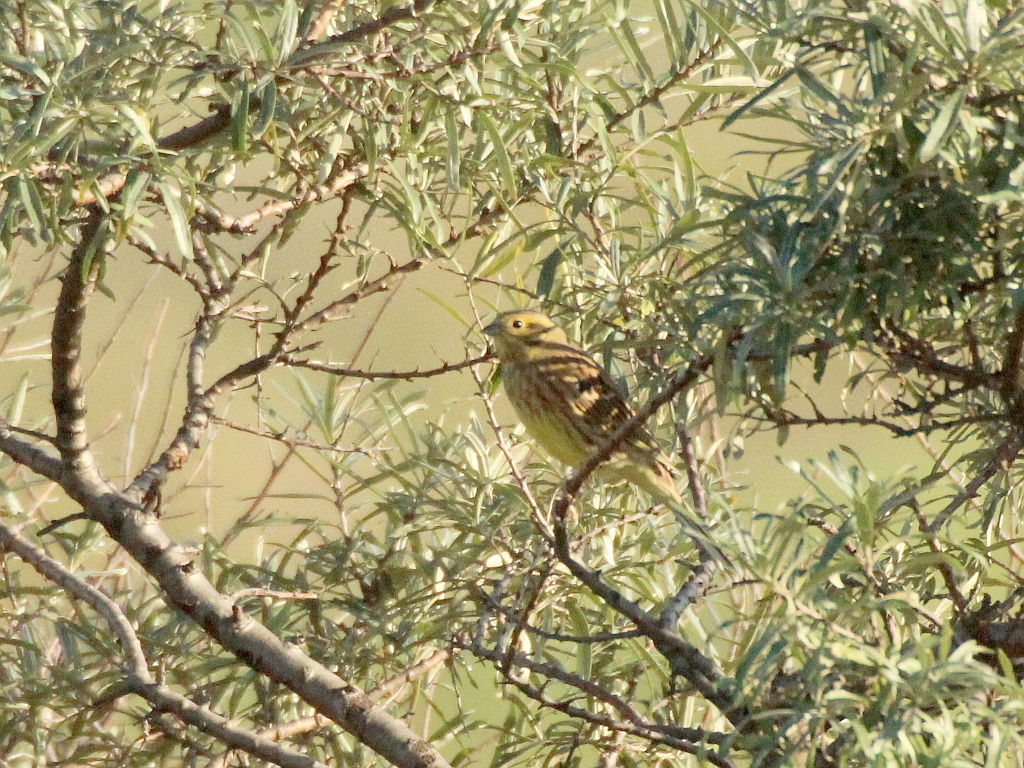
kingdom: Animalia
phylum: Chordata
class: Aves
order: Passeriformes
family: Emberizidae
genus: Emberiza
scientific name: Emberiza citrinella
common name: Yellowhammer
